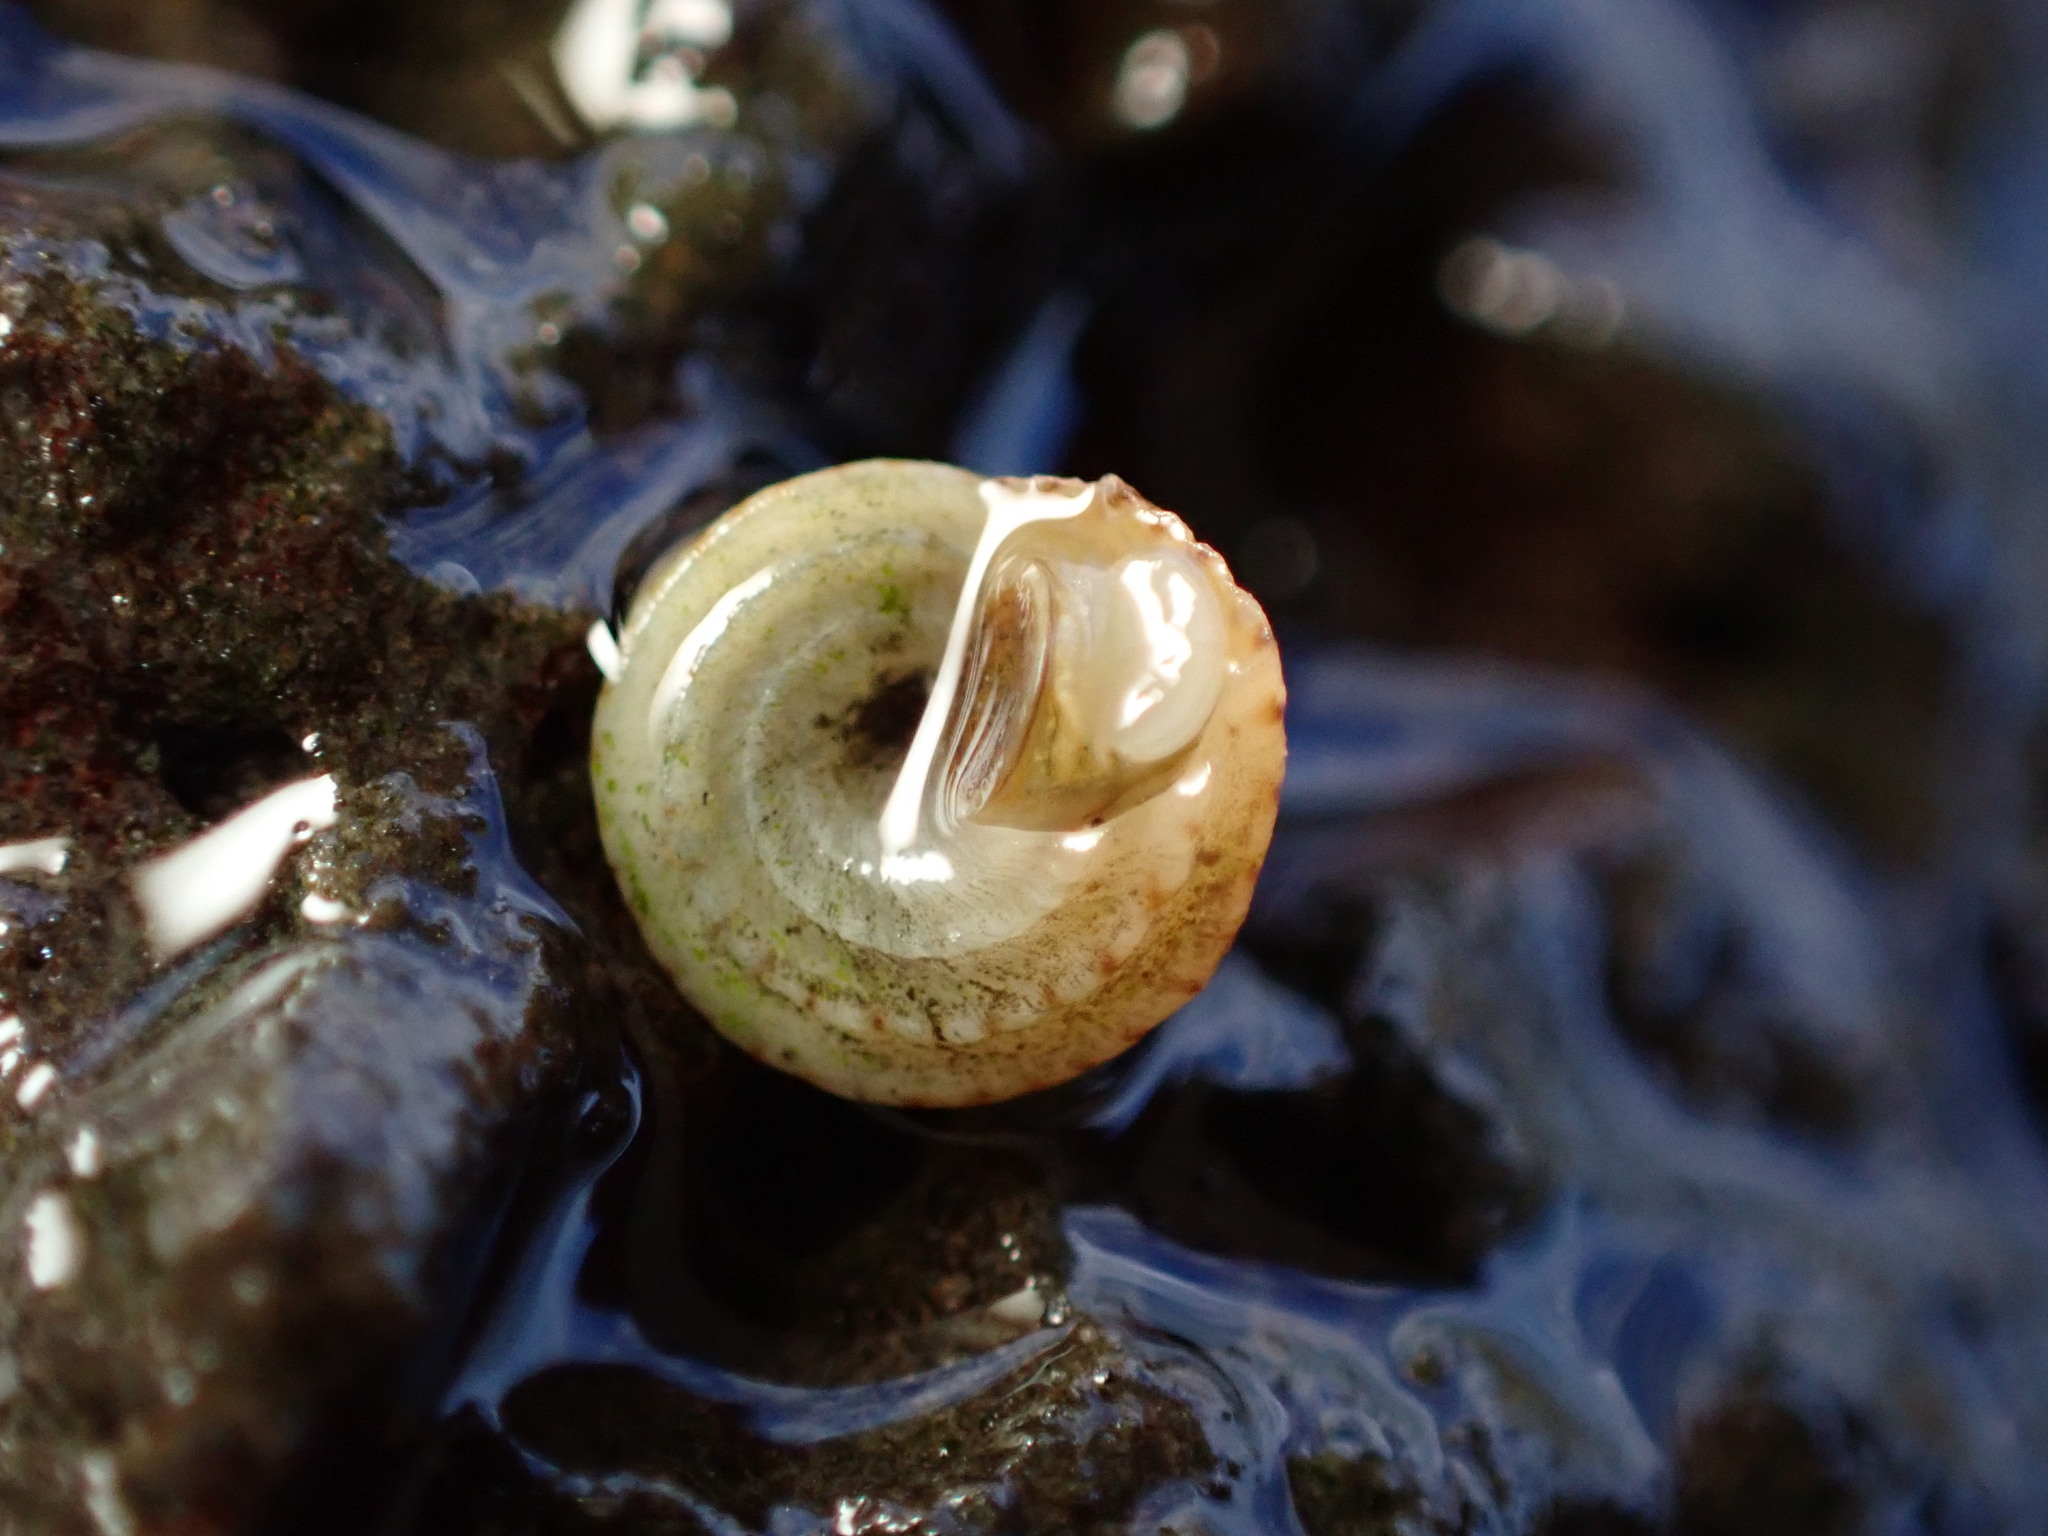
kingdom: Animalia
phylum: Mollusca
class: Gastropoda
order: Littorinimorpha
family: Littorinidae
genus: Peasiella
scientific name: Peasiella tantilla
